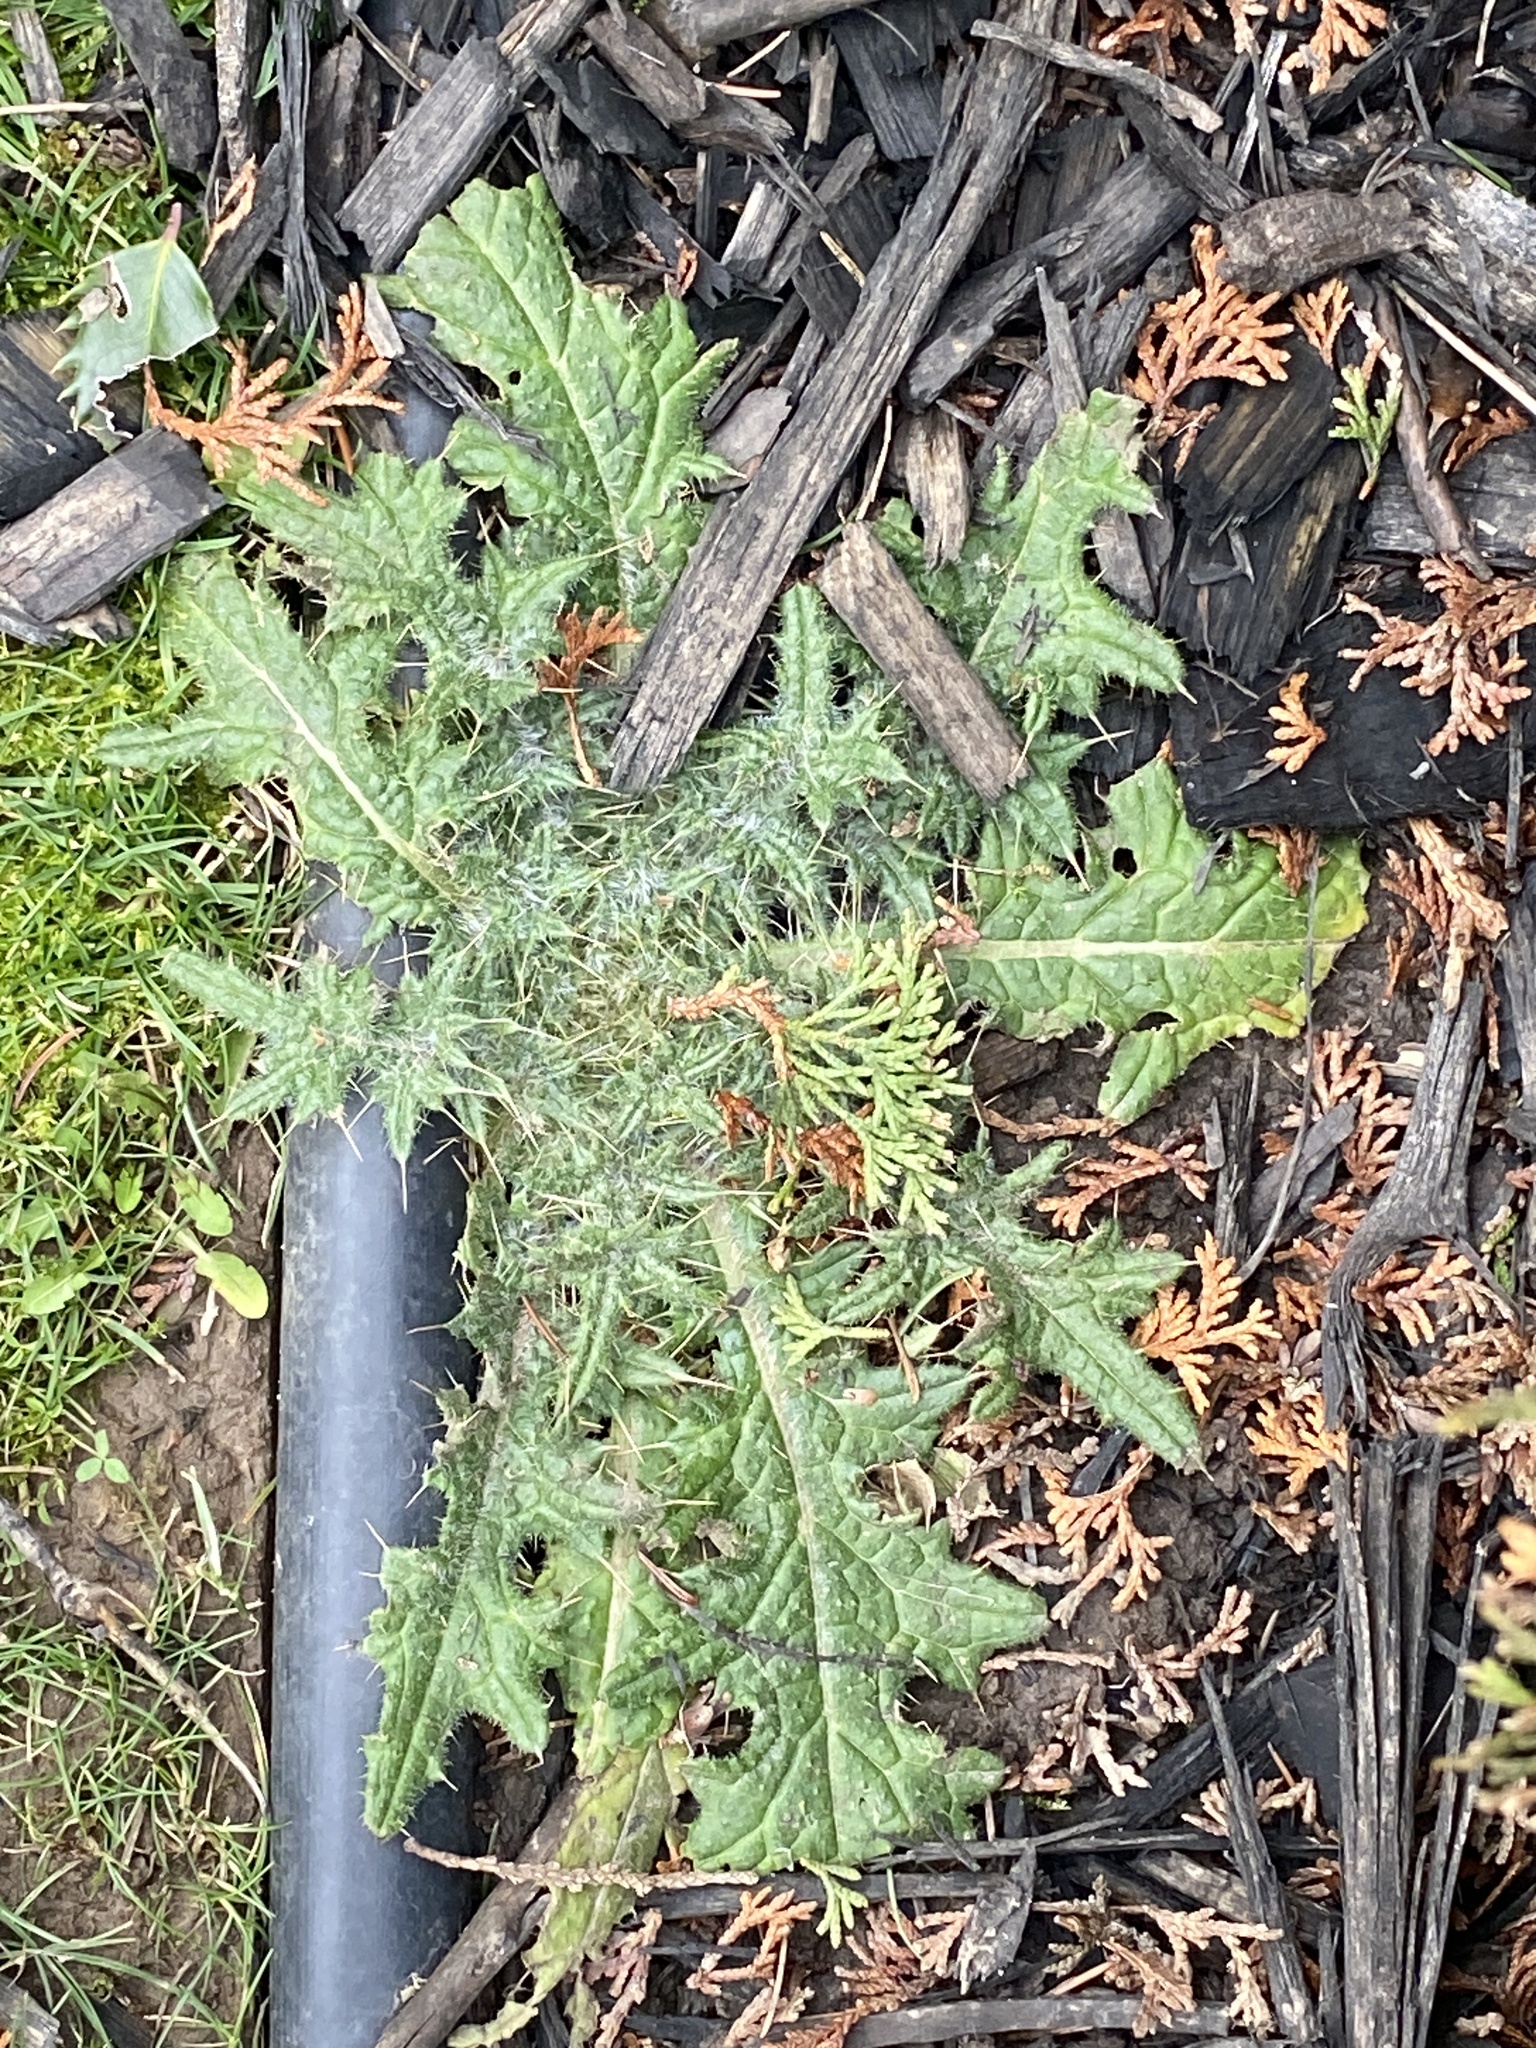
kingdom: Plantae
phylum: Tracheophyta
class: Magnoliopsida
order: Asterales
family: Asteraceae
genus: Cirsium
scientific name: Cirsium vulgare
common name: Bull thistle
